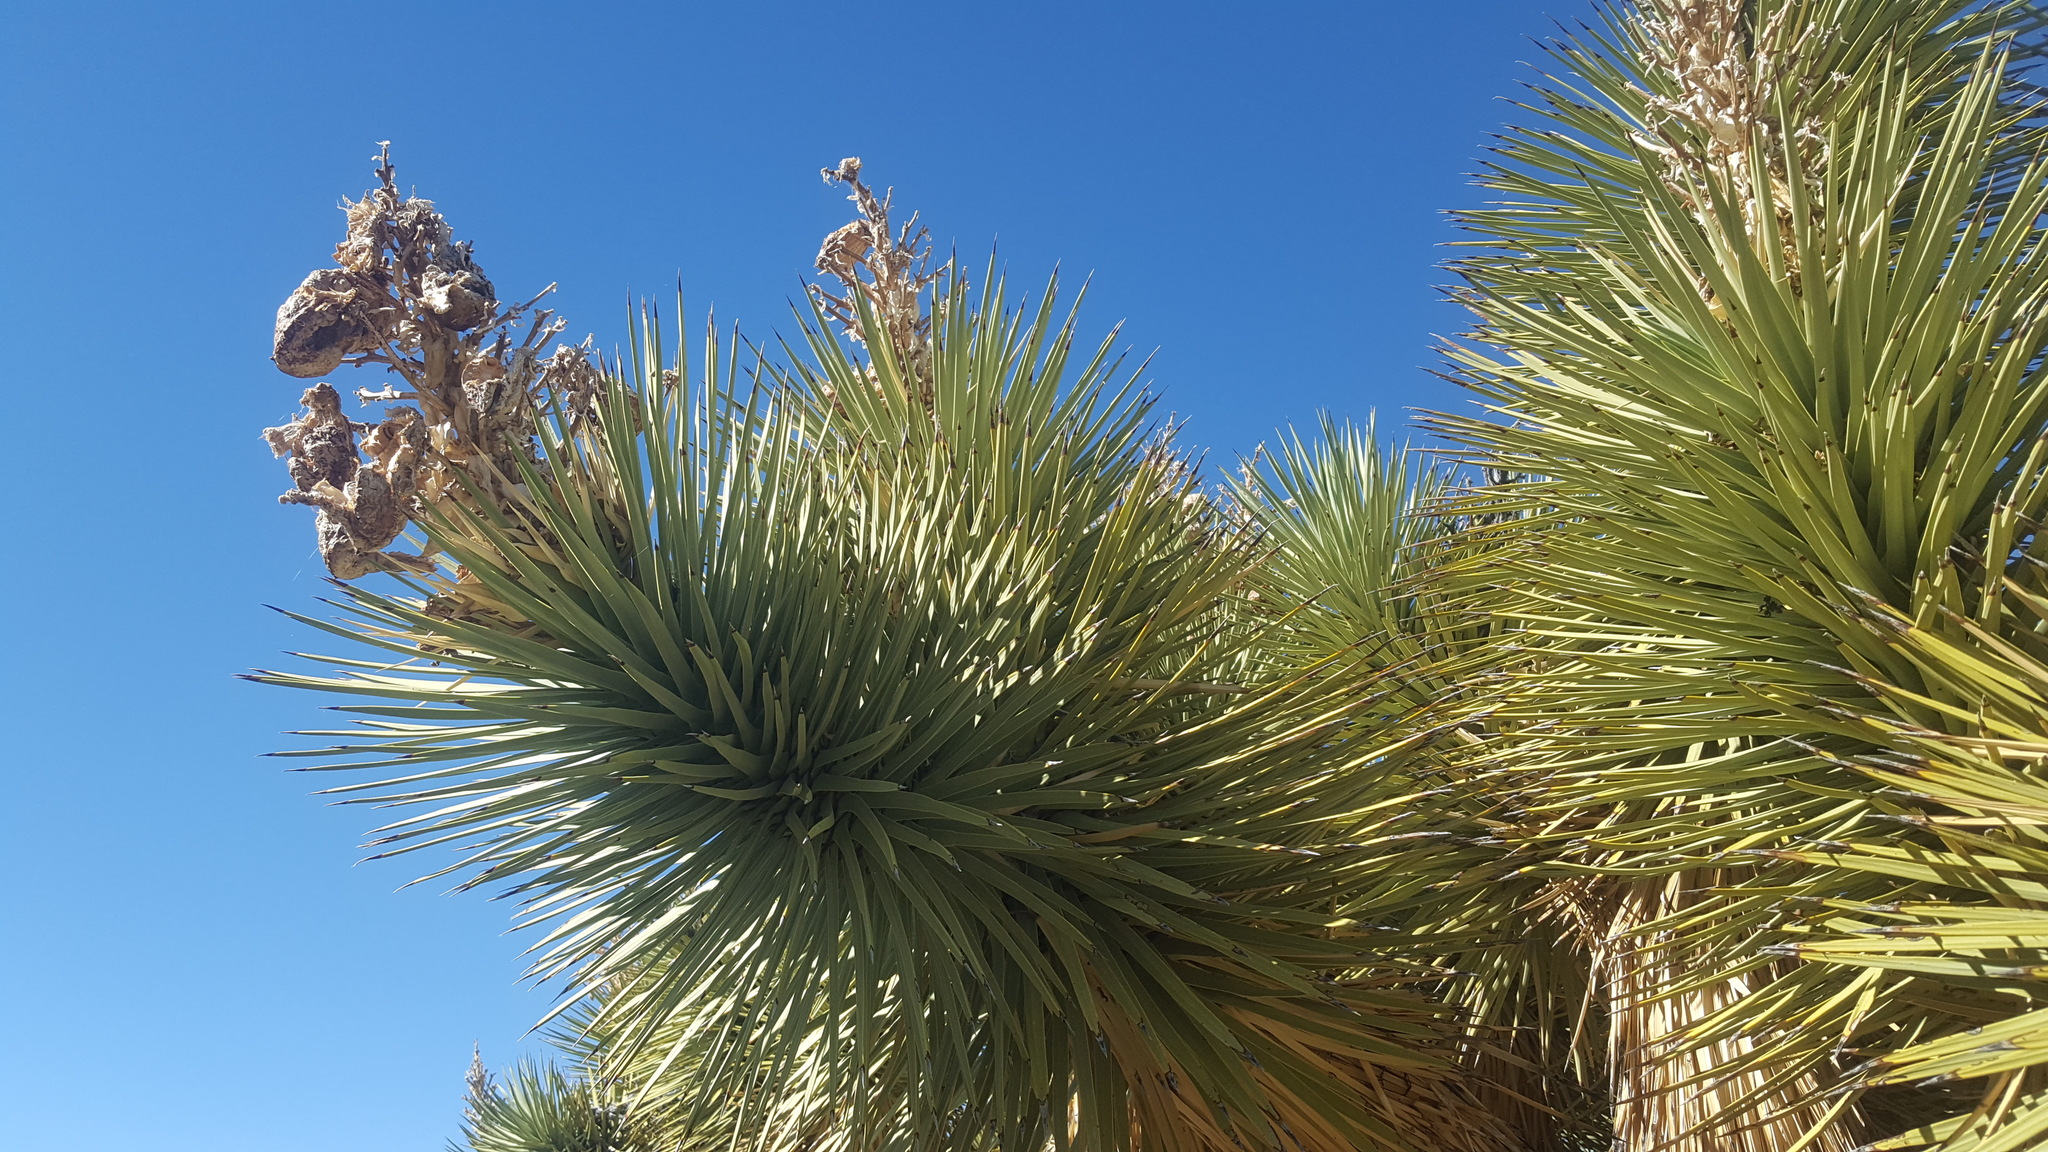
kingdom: Plantae
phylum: Tracheophyta
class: Liliopsida
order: Asparagales
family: Asparagaceae
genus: Yucca
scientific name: Yucca brevifolia
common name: Joshua tree
